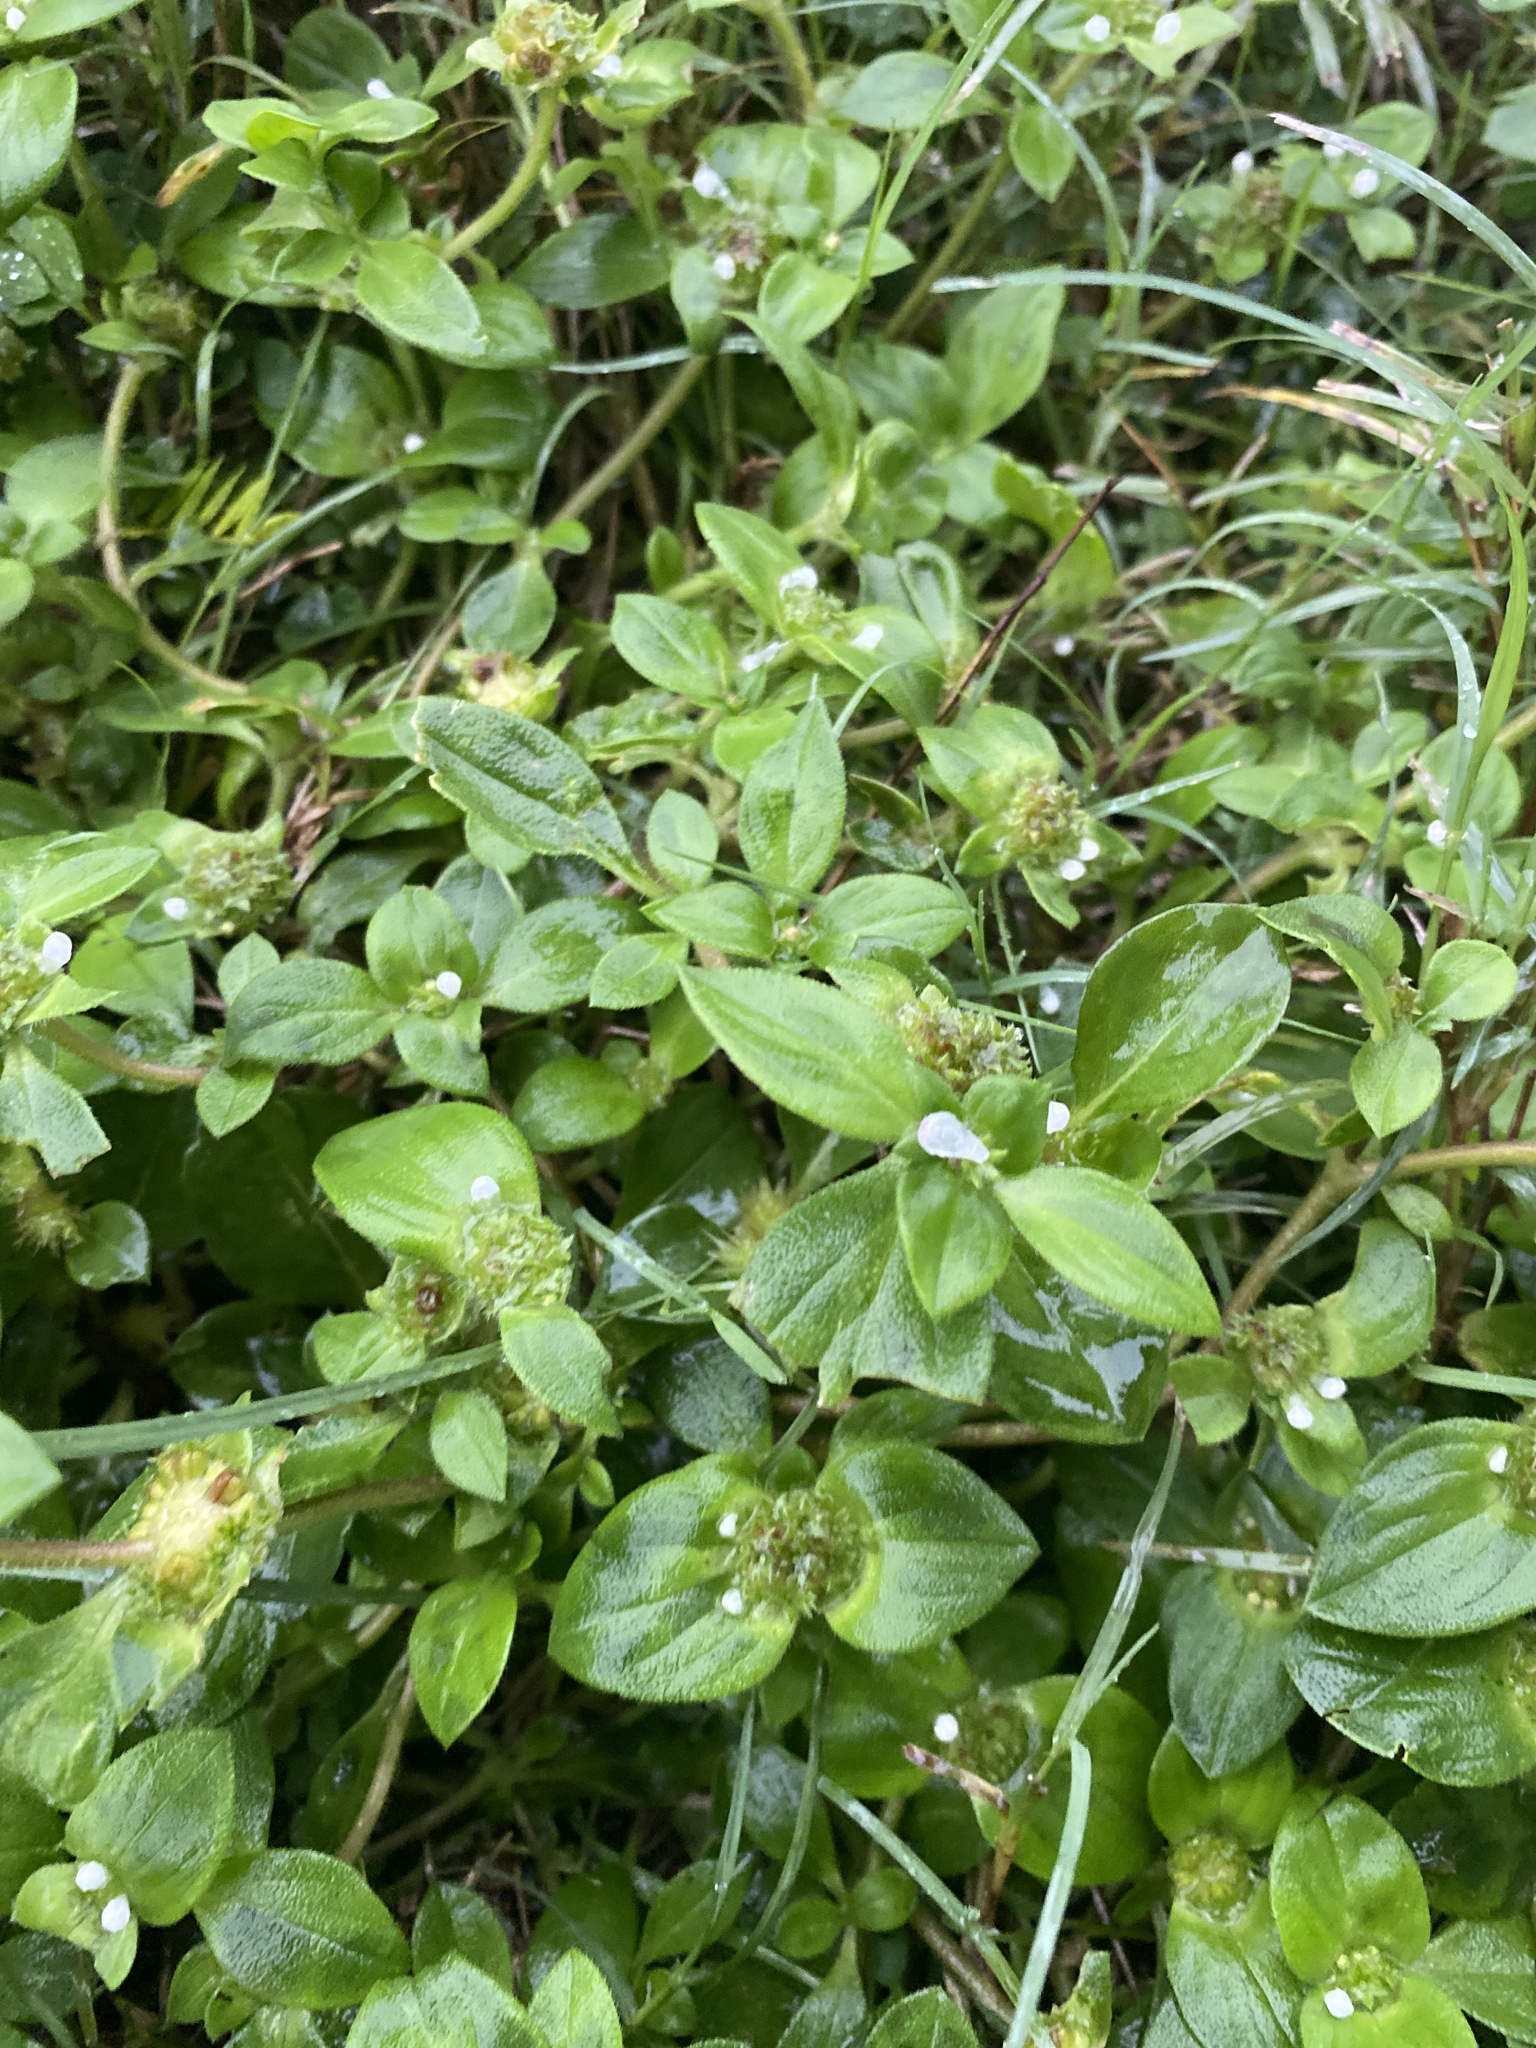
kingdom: Plantae
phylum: Tracheophyta
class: Magnoliopsida
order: Gentianales
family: Rubiaceae
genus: Richardia
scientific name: Richardia brasiliensis
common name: Tropical mexican clover
